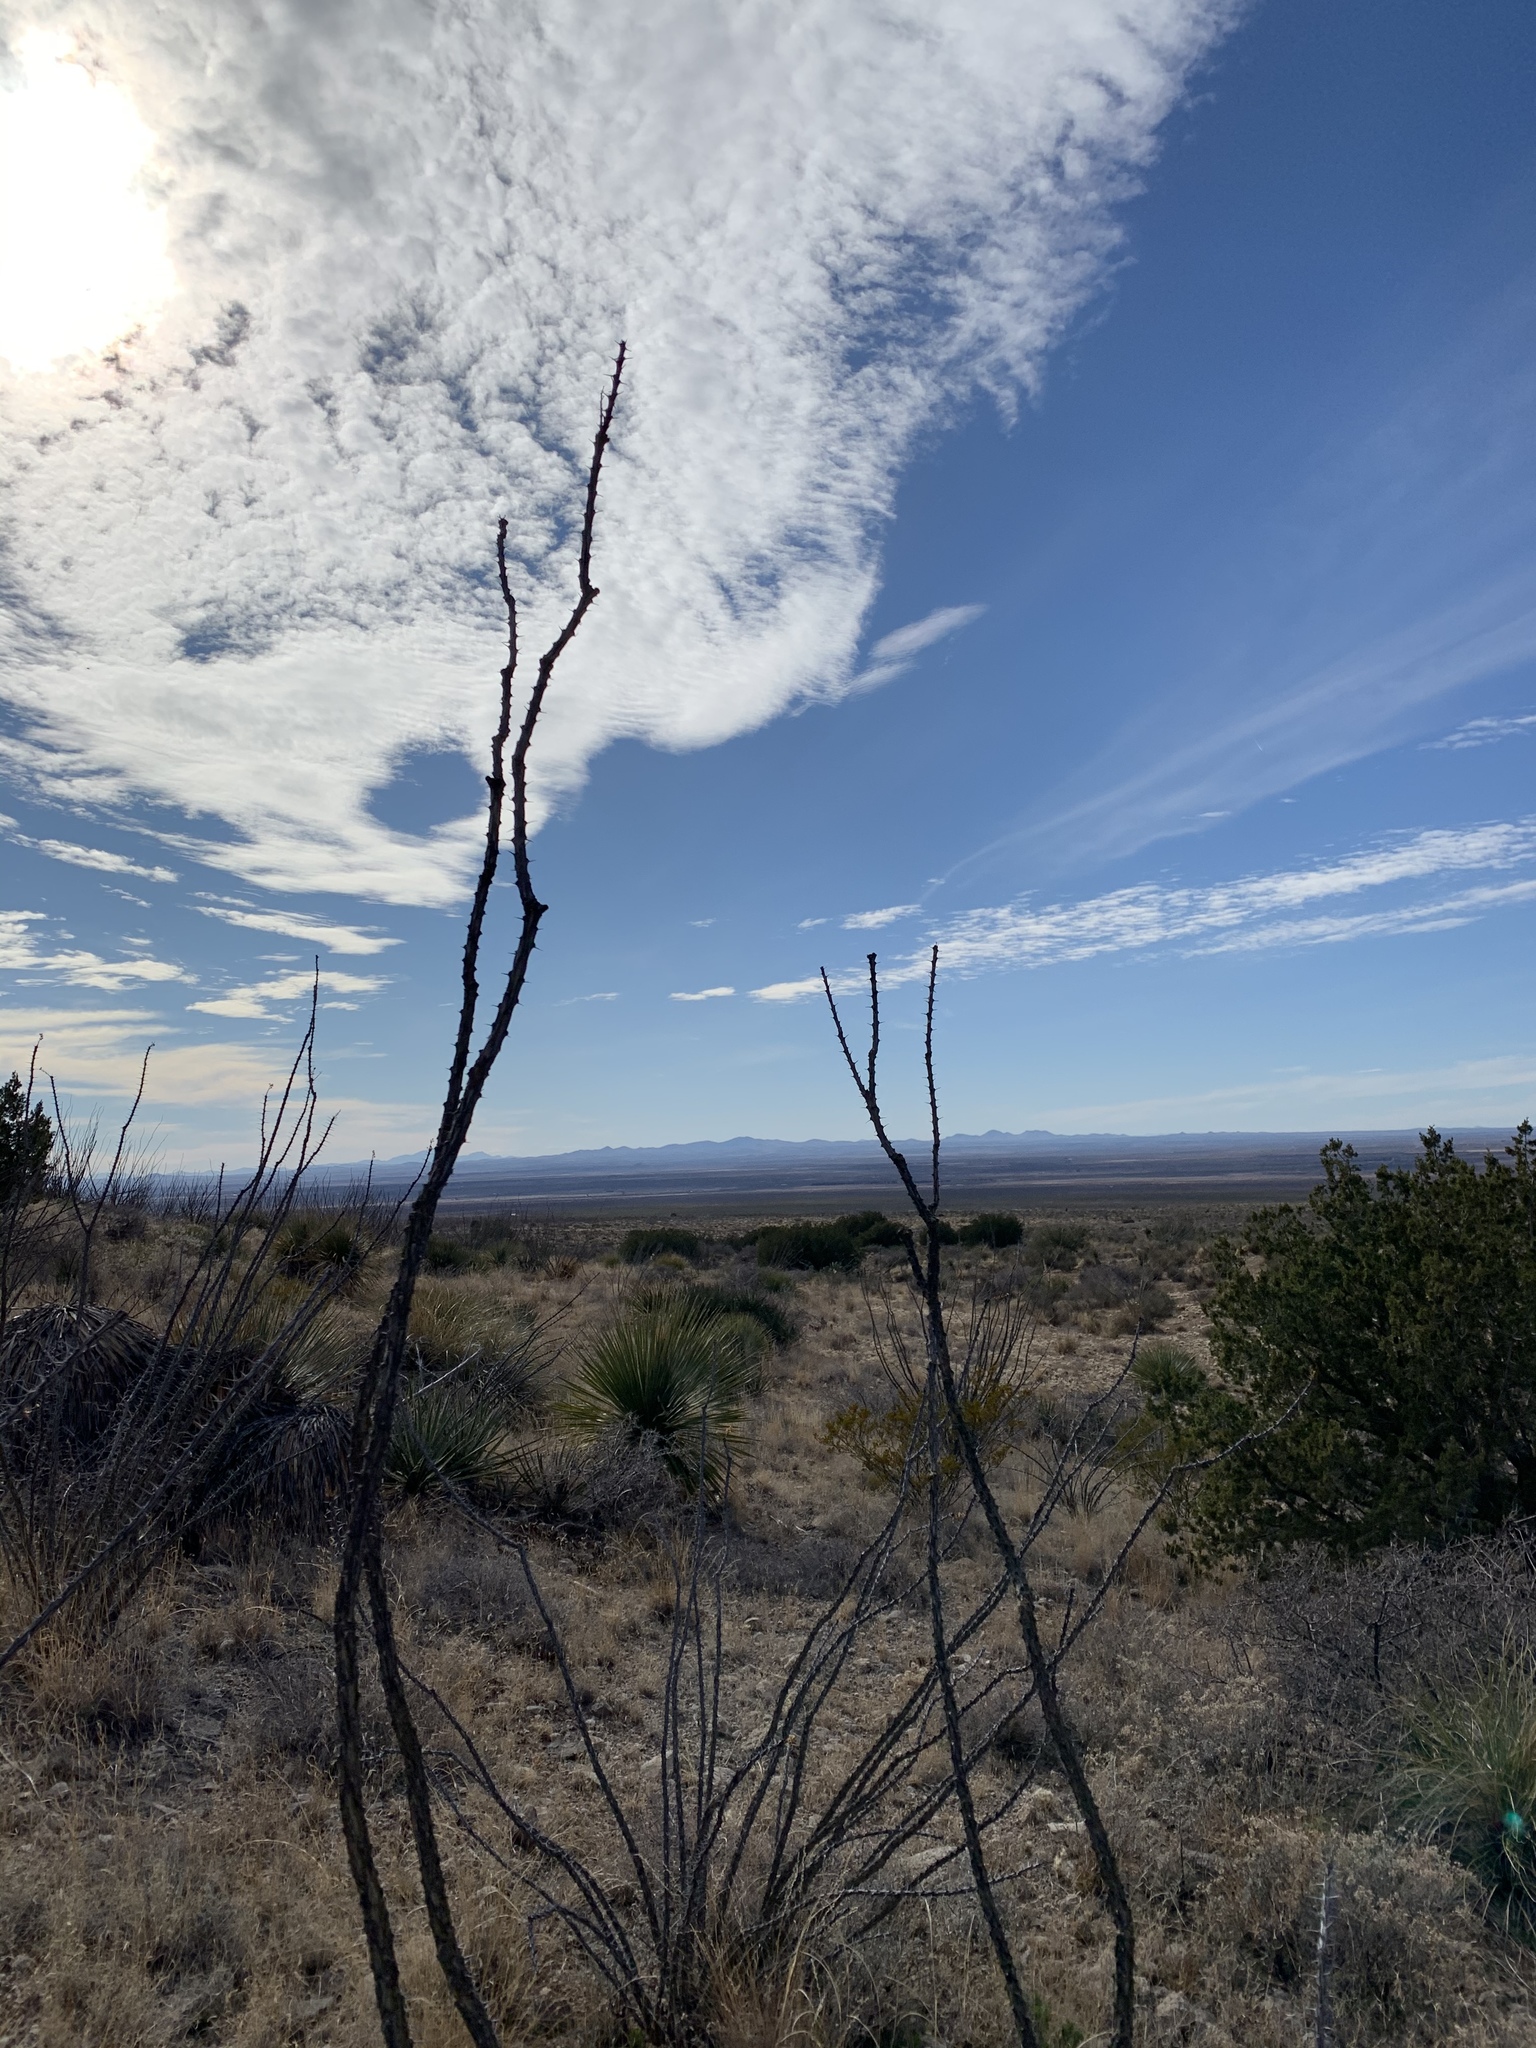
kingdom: Plantae
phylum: Tracheophyta
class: Magnoliopsida
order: Ericales
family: Fouquieriaceae
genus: Fouquieria
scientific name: Fouquieria splendens
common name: Vine-cactus
